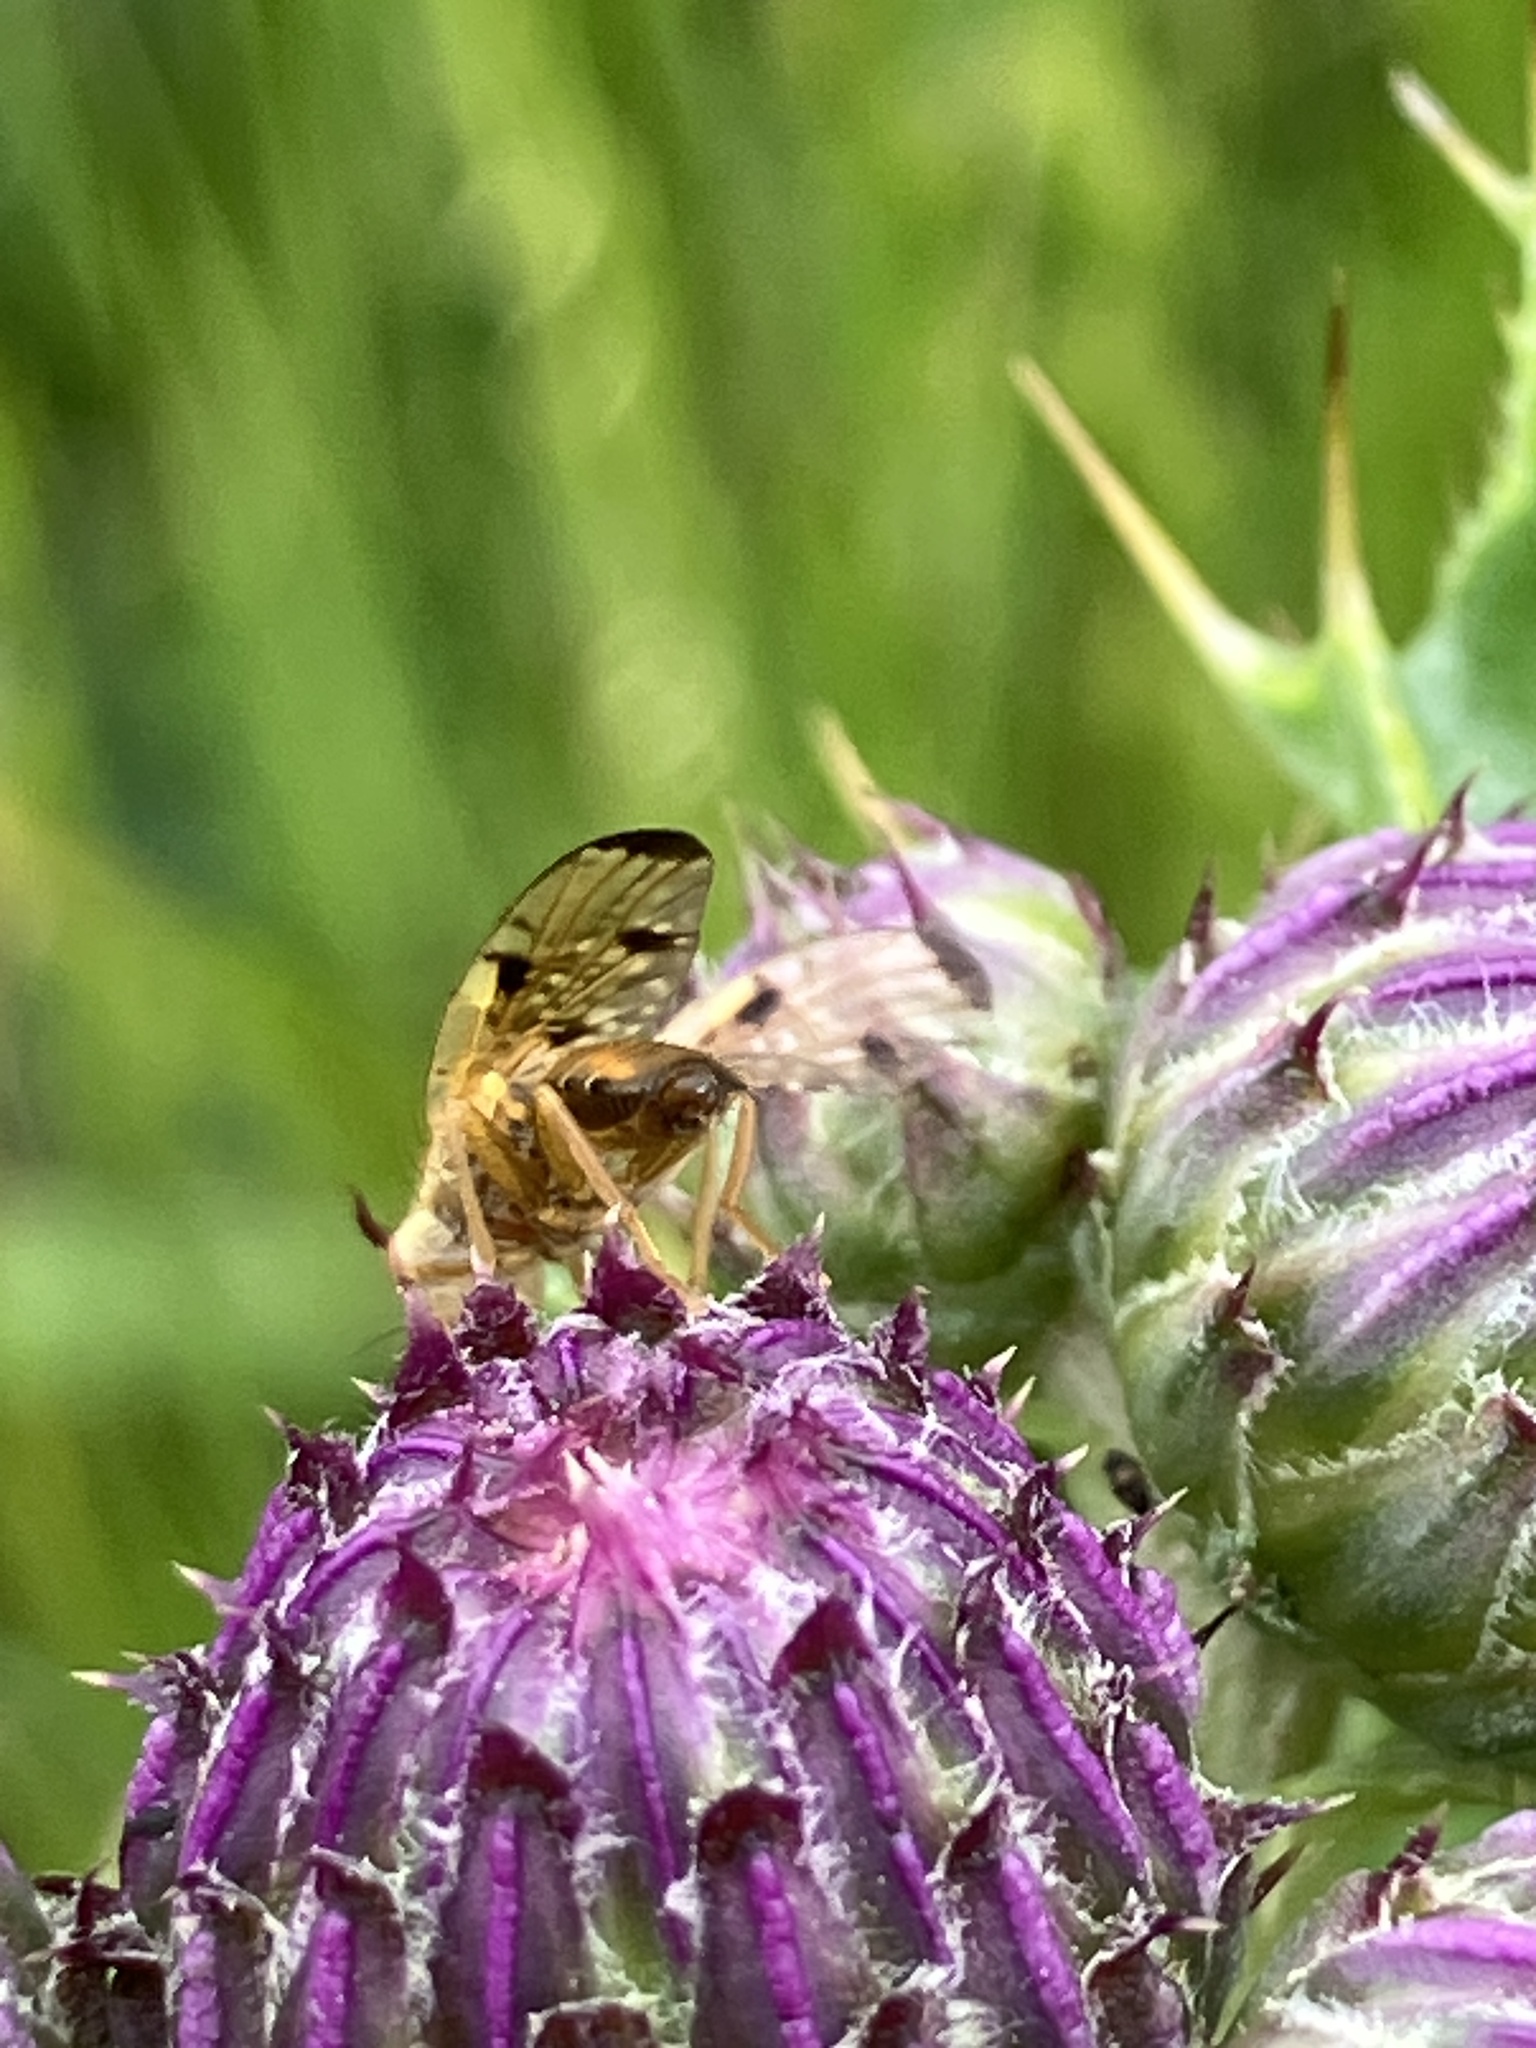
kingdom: Animalia
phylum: Arthropoda
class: Insecta
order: Diptera
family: Tephritidae
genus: Xyphosia
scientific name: Xyphosia miliaria
